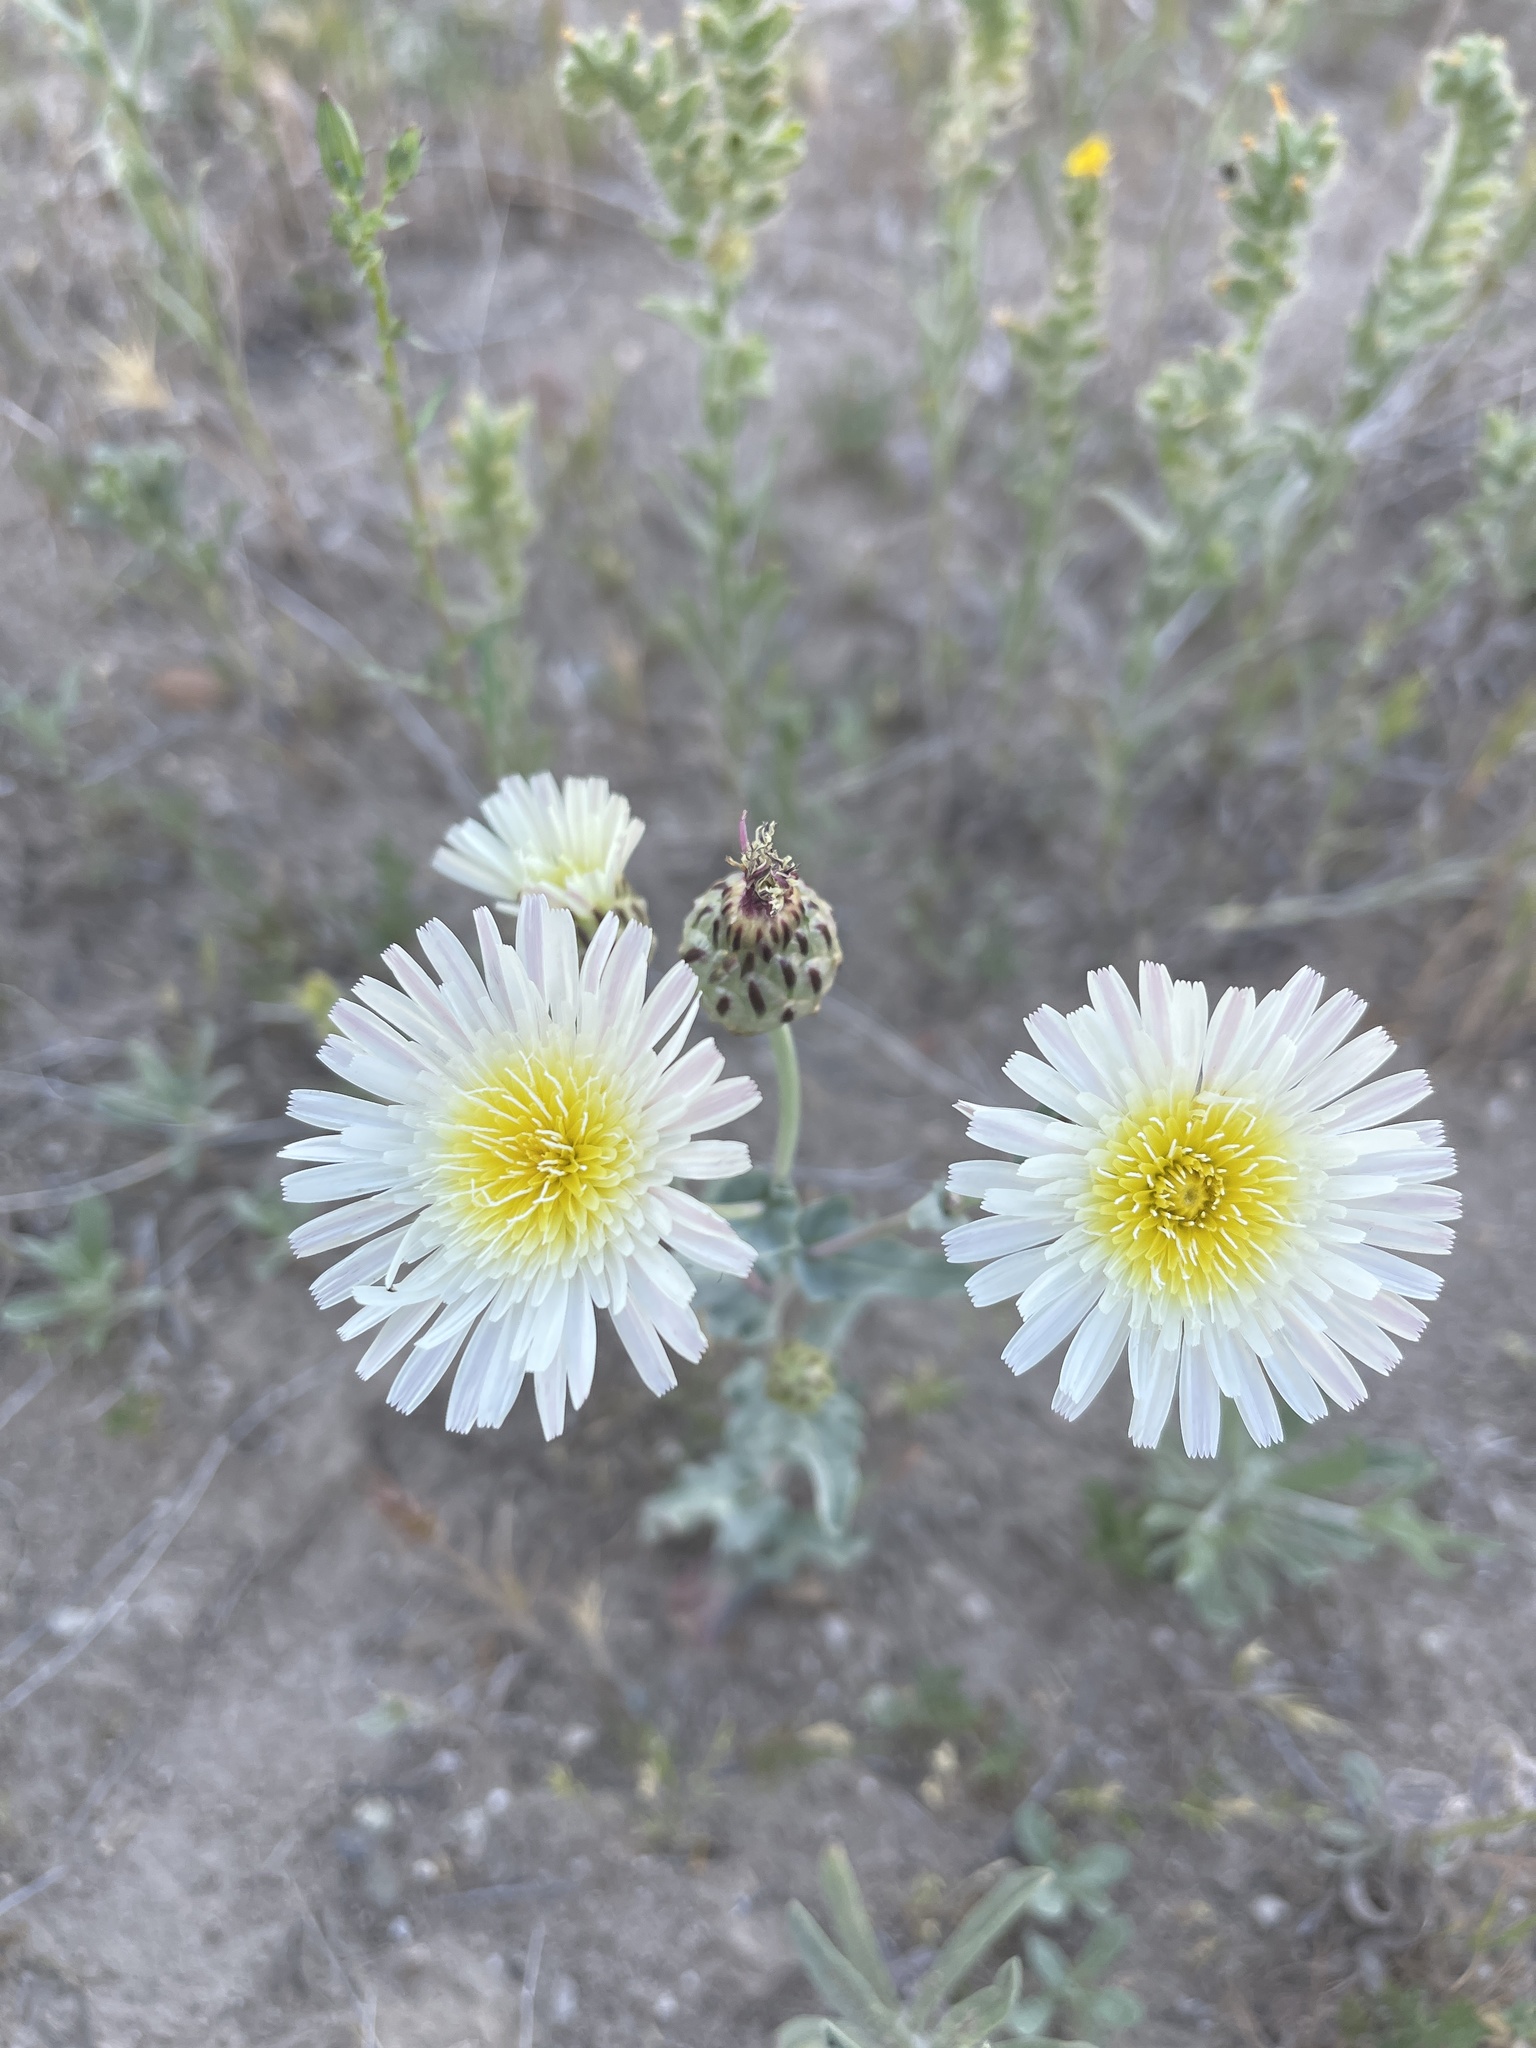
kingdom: Plantae
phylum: Tracheophyta
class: Magnoliopsida
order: Asterales
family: Asteraceae
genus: Malacothrix
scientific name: Malacothrix coulteri
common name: Snake's-head
